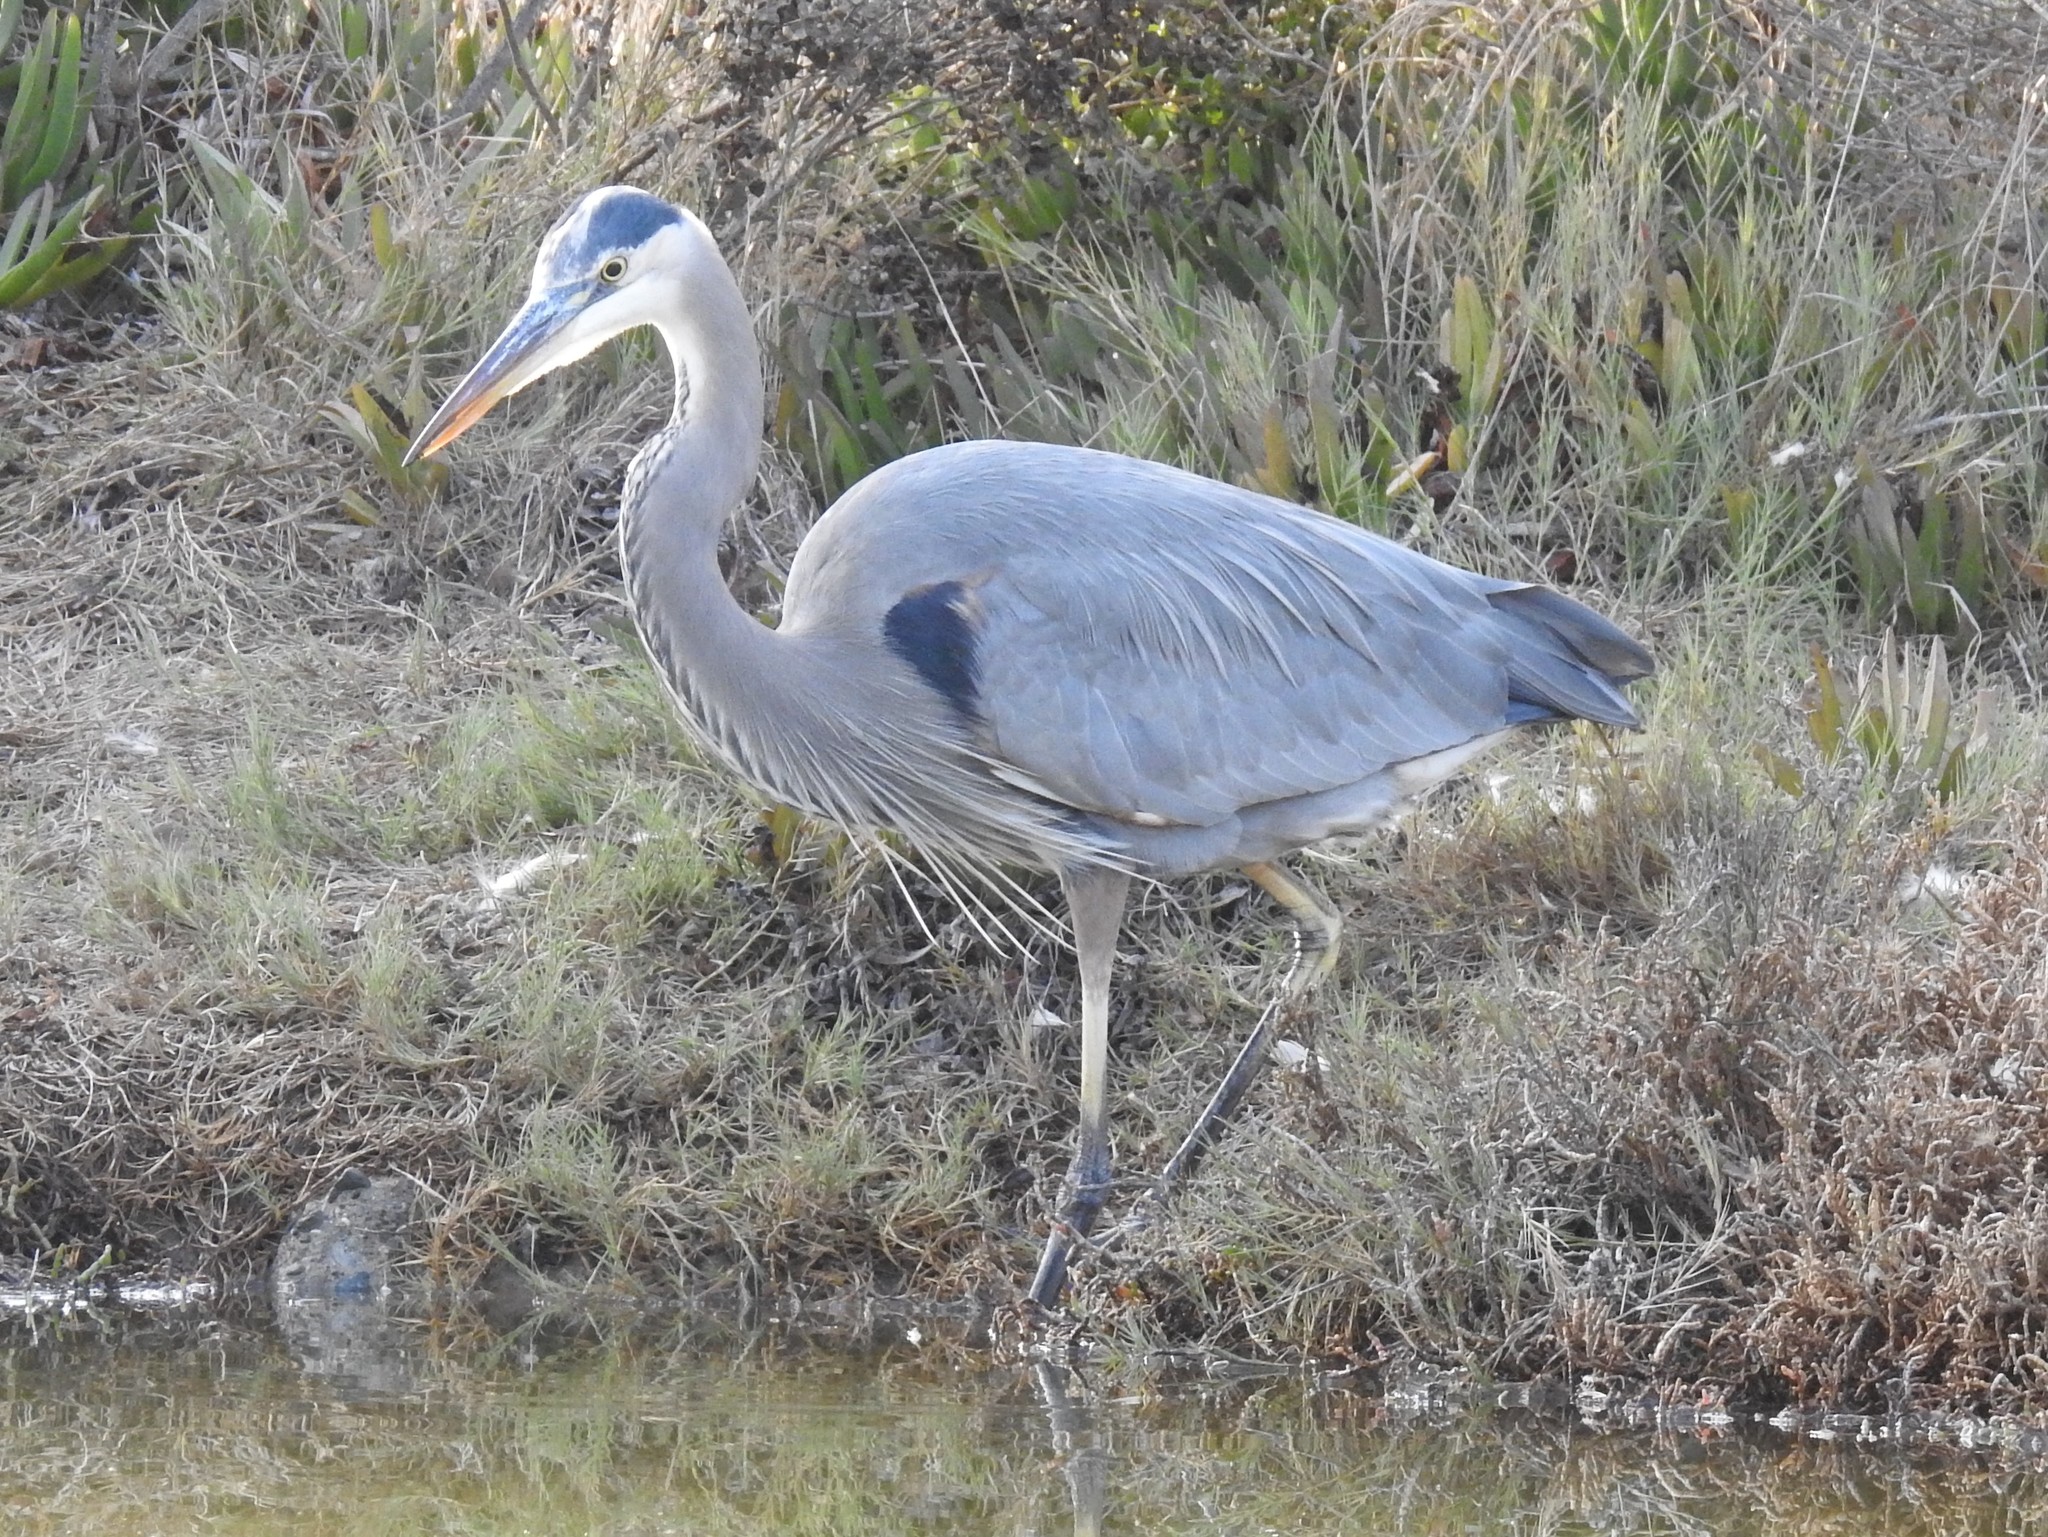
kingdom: Animalia
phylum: Chordata
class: Aves
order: Pelecaniformes
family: Ardeidae
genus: Ardea
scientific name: Ardea herodias
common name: Great blue heron
